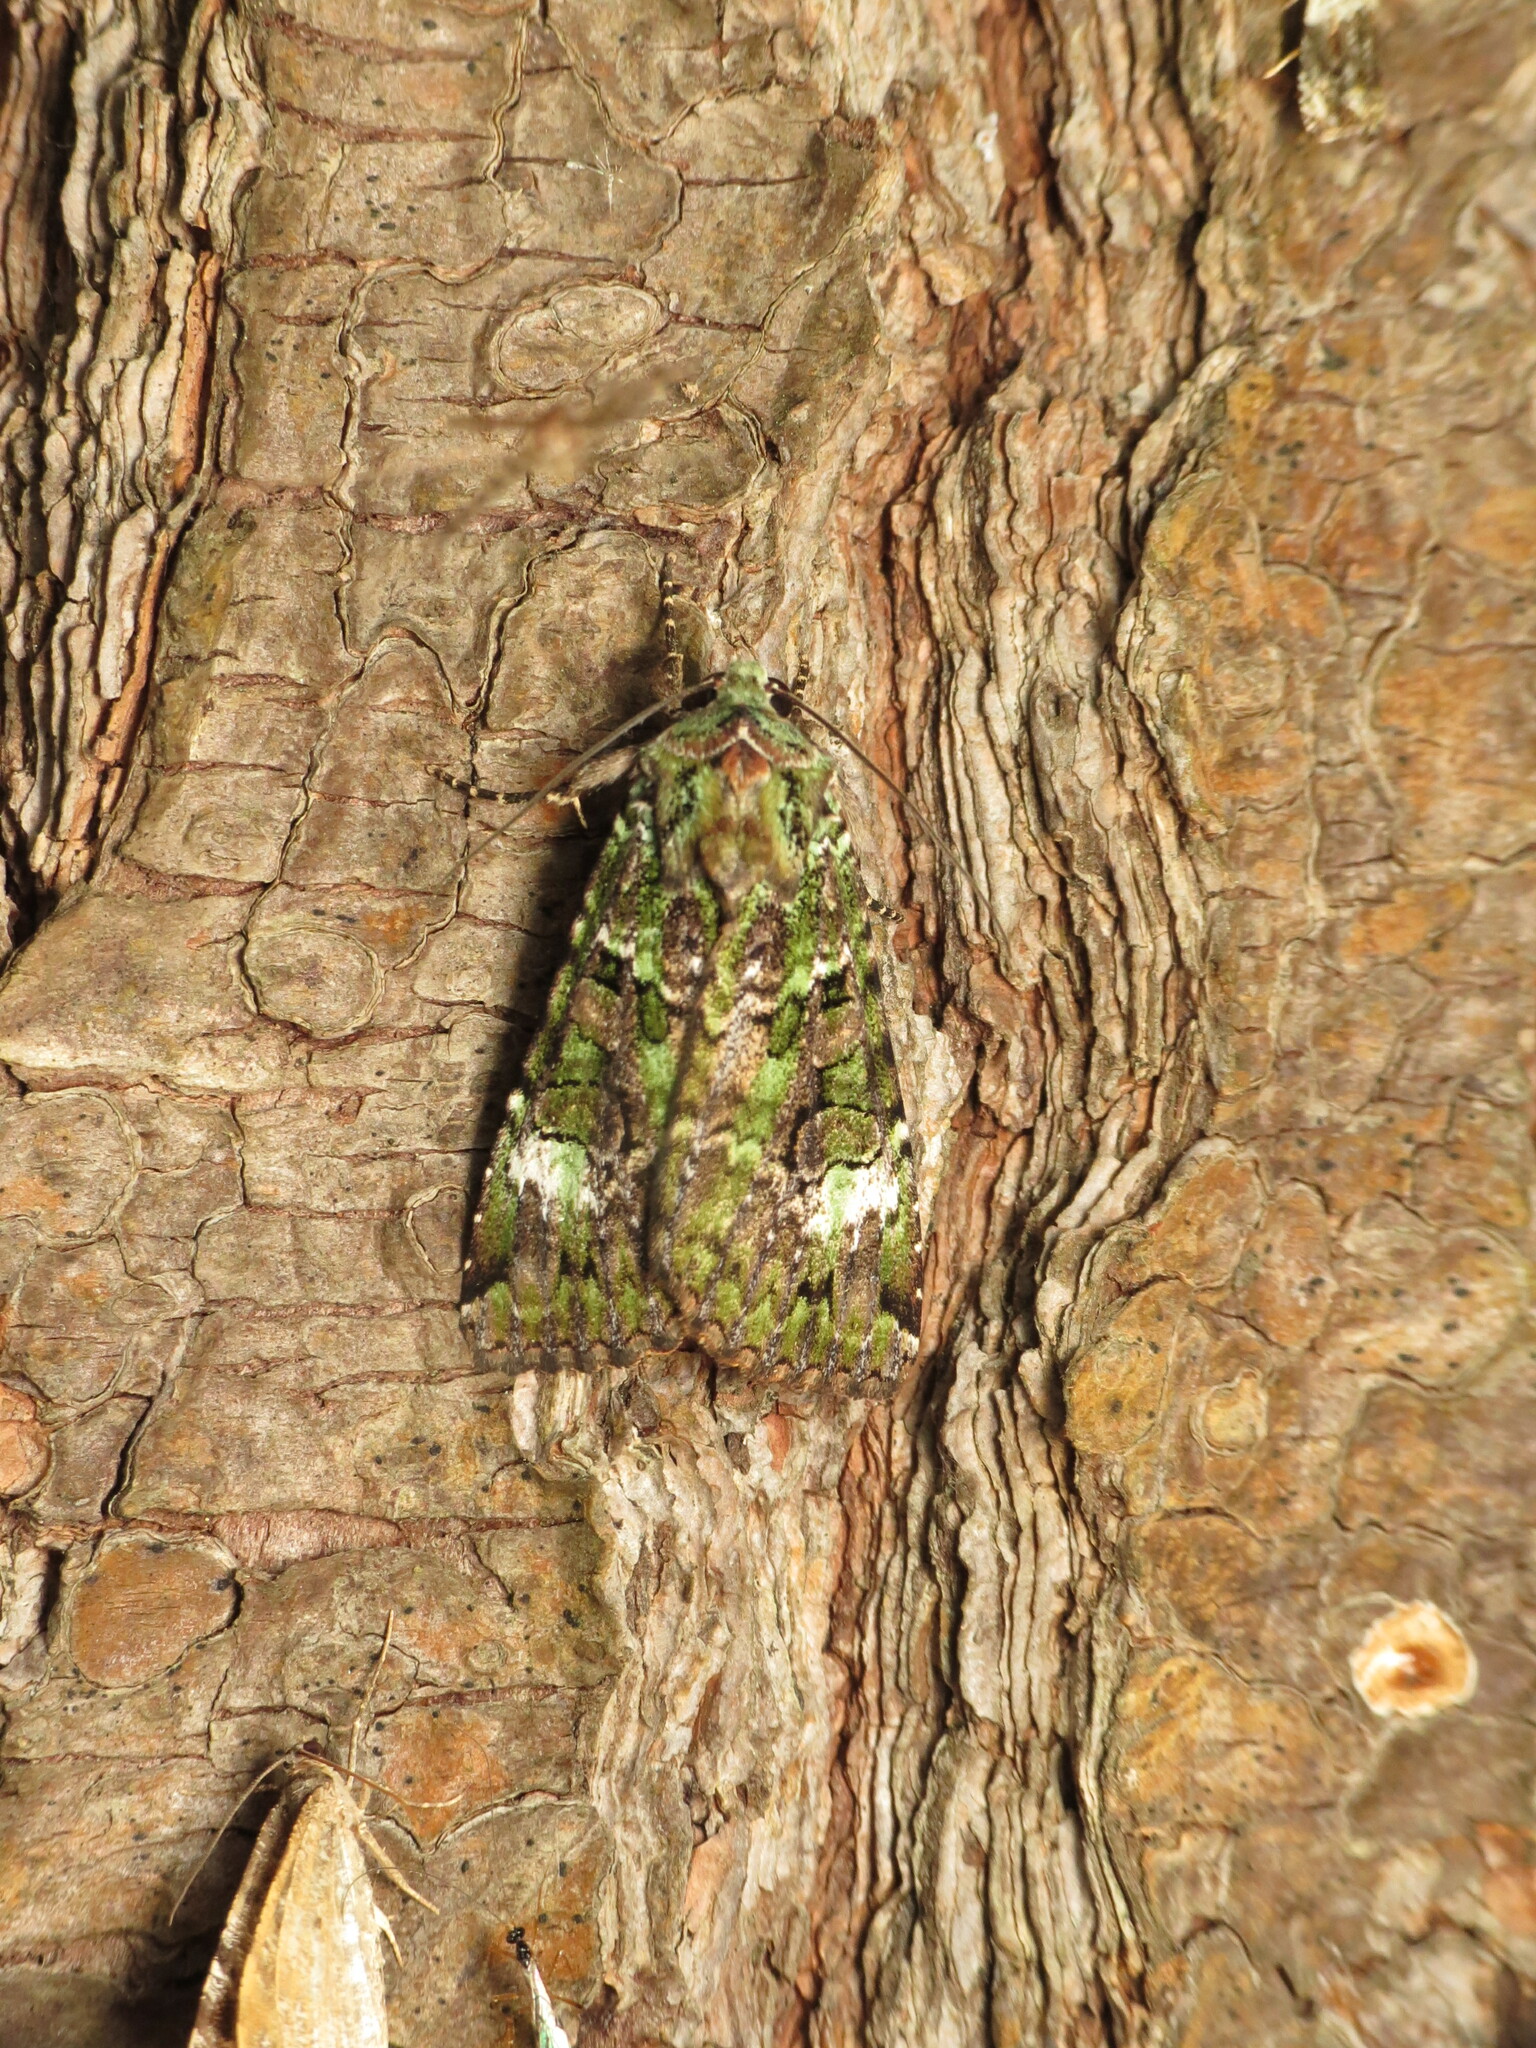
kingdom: Animalia
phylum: Arthropoda
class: Insecta
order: Lepidoptera
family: Noctuidae
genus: Anaplectoides
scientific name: Anaplectoides prasina
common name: Green arches
